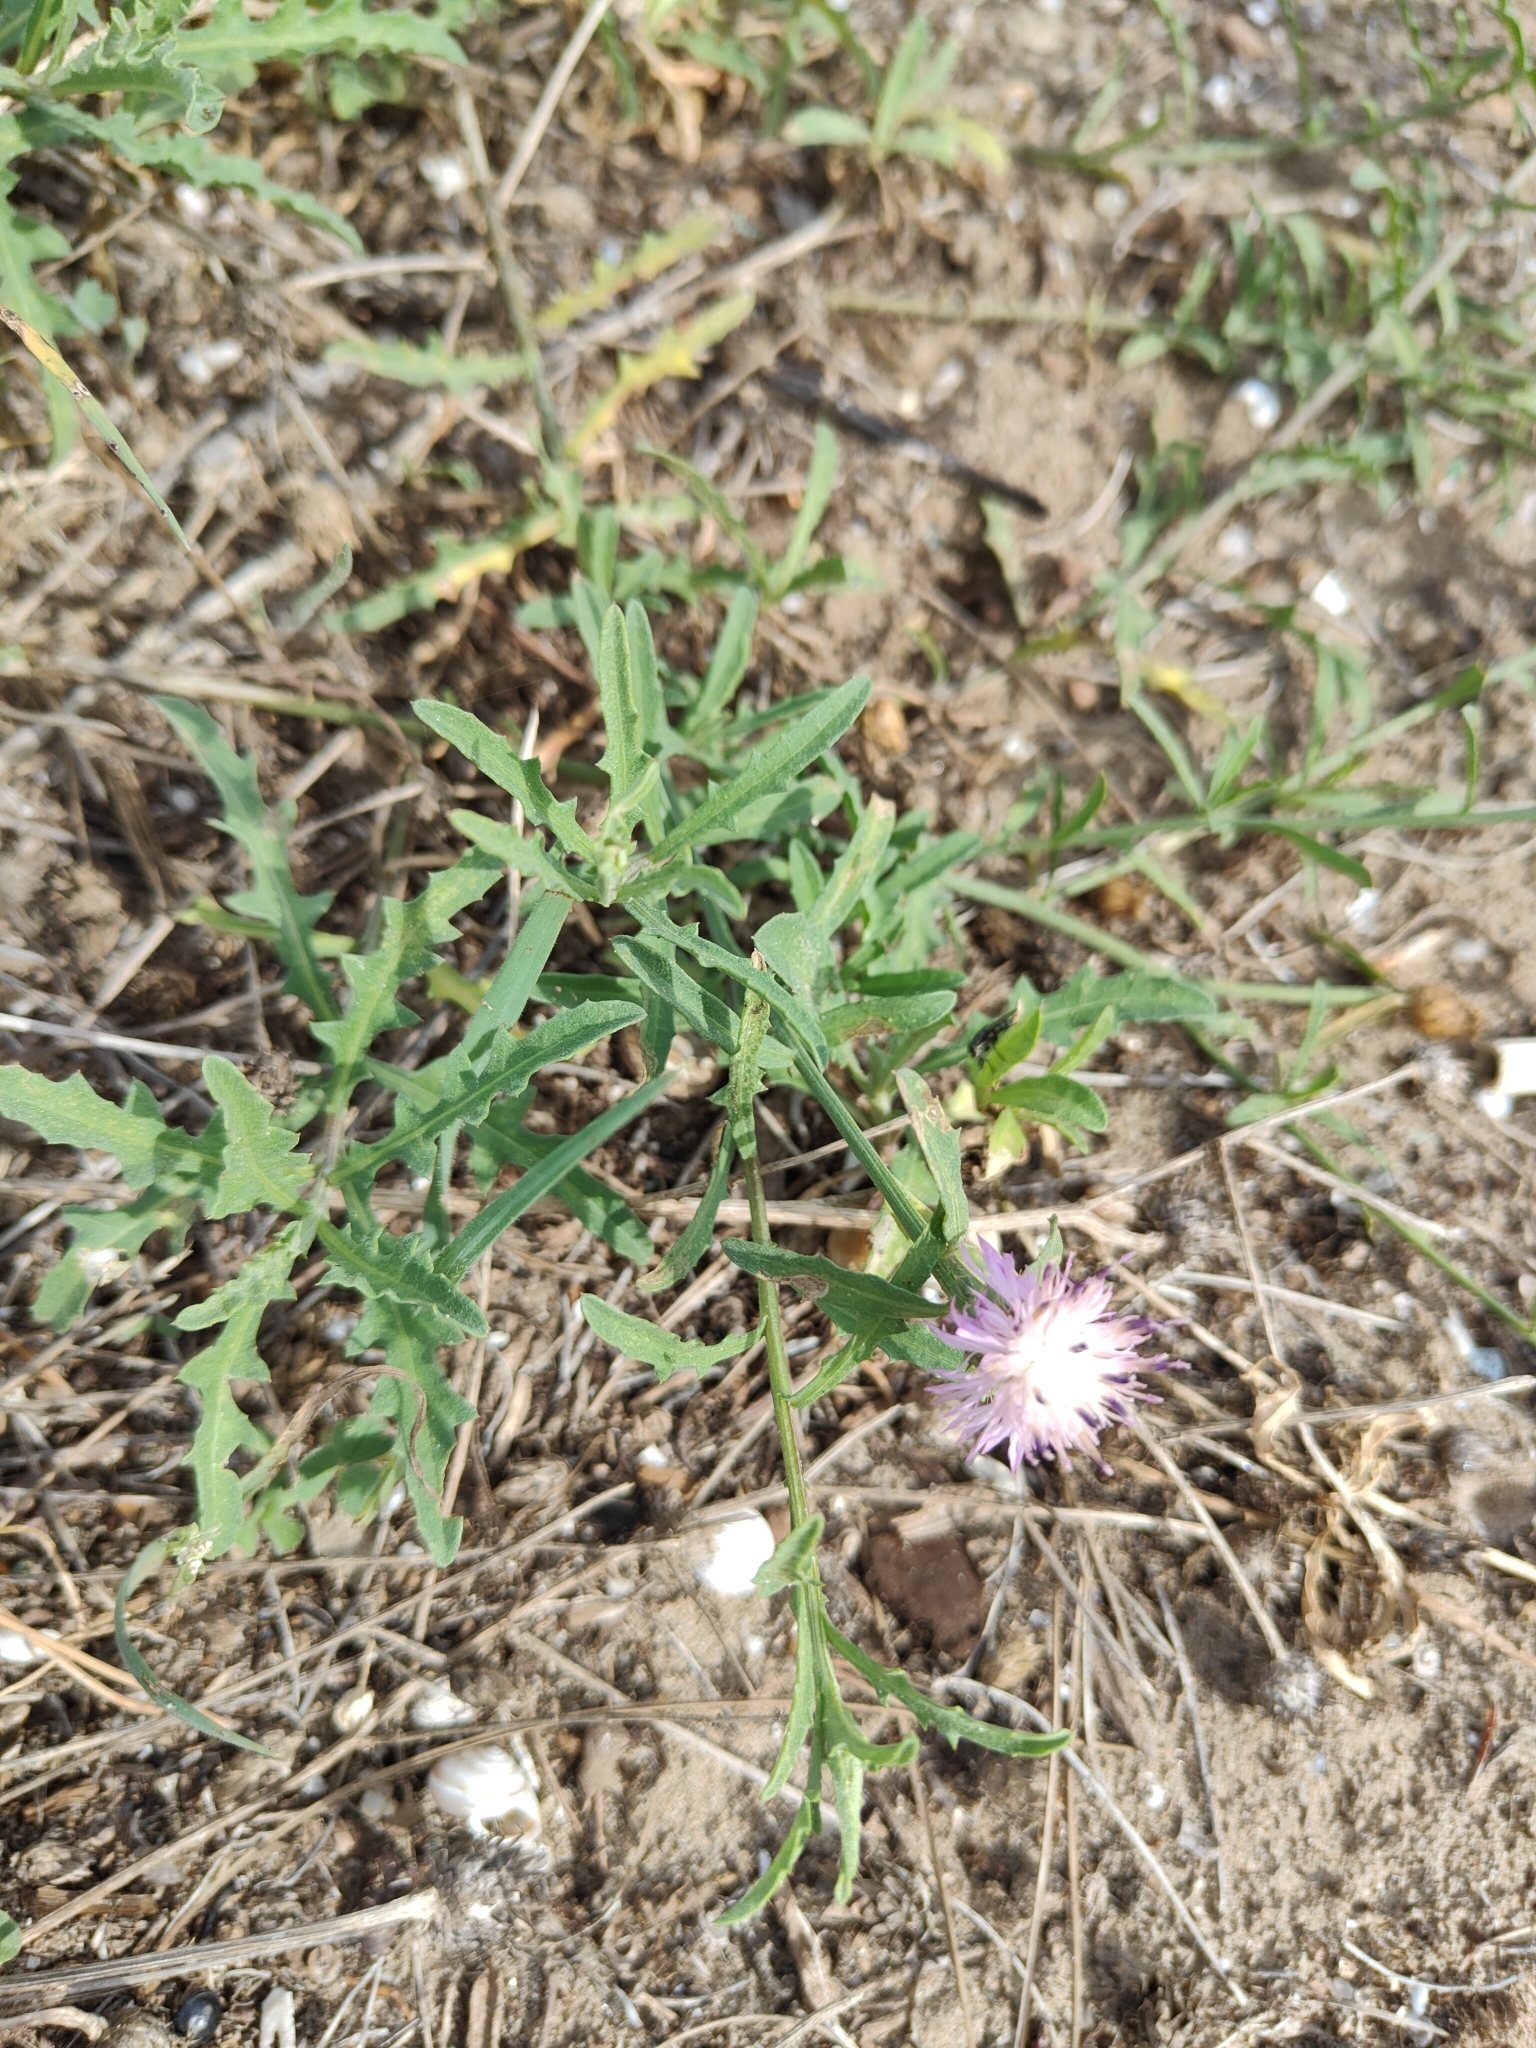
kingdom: Plantae
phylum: Tracheophyta
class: Magnoliopsida
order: Asterales
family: Asteraceae
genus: Centaurea
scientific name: Centaurea aspera
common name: Rough star-thistle
